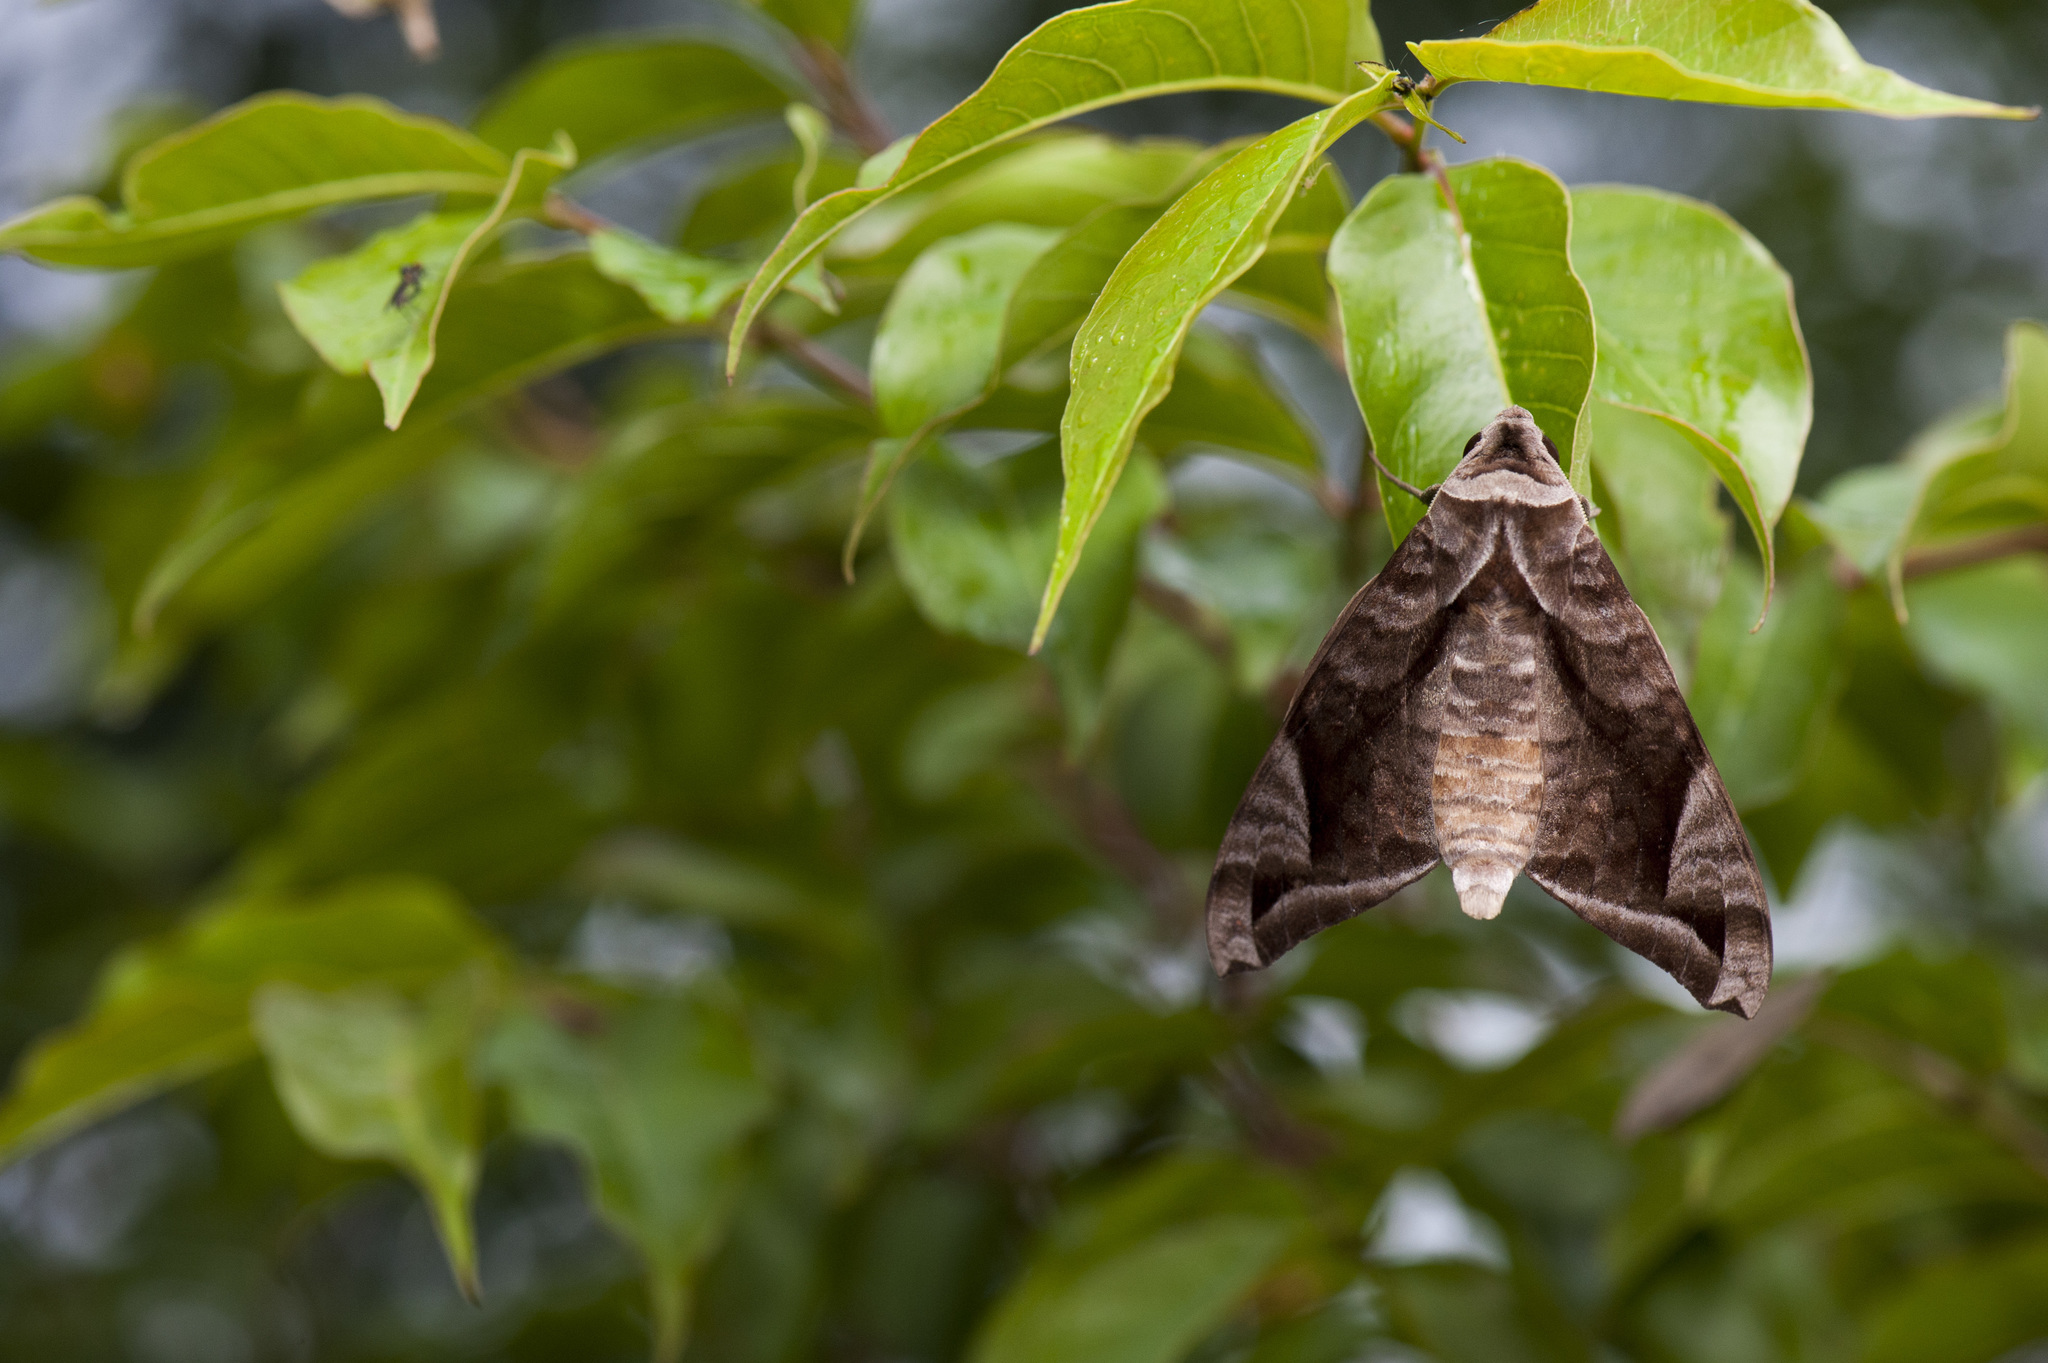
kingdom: Animalia
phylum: Arthropoda
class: Insecta
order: Lepidoptera
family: Sphingidae
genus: Acosmeryx
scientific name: Acosmeryx naga
